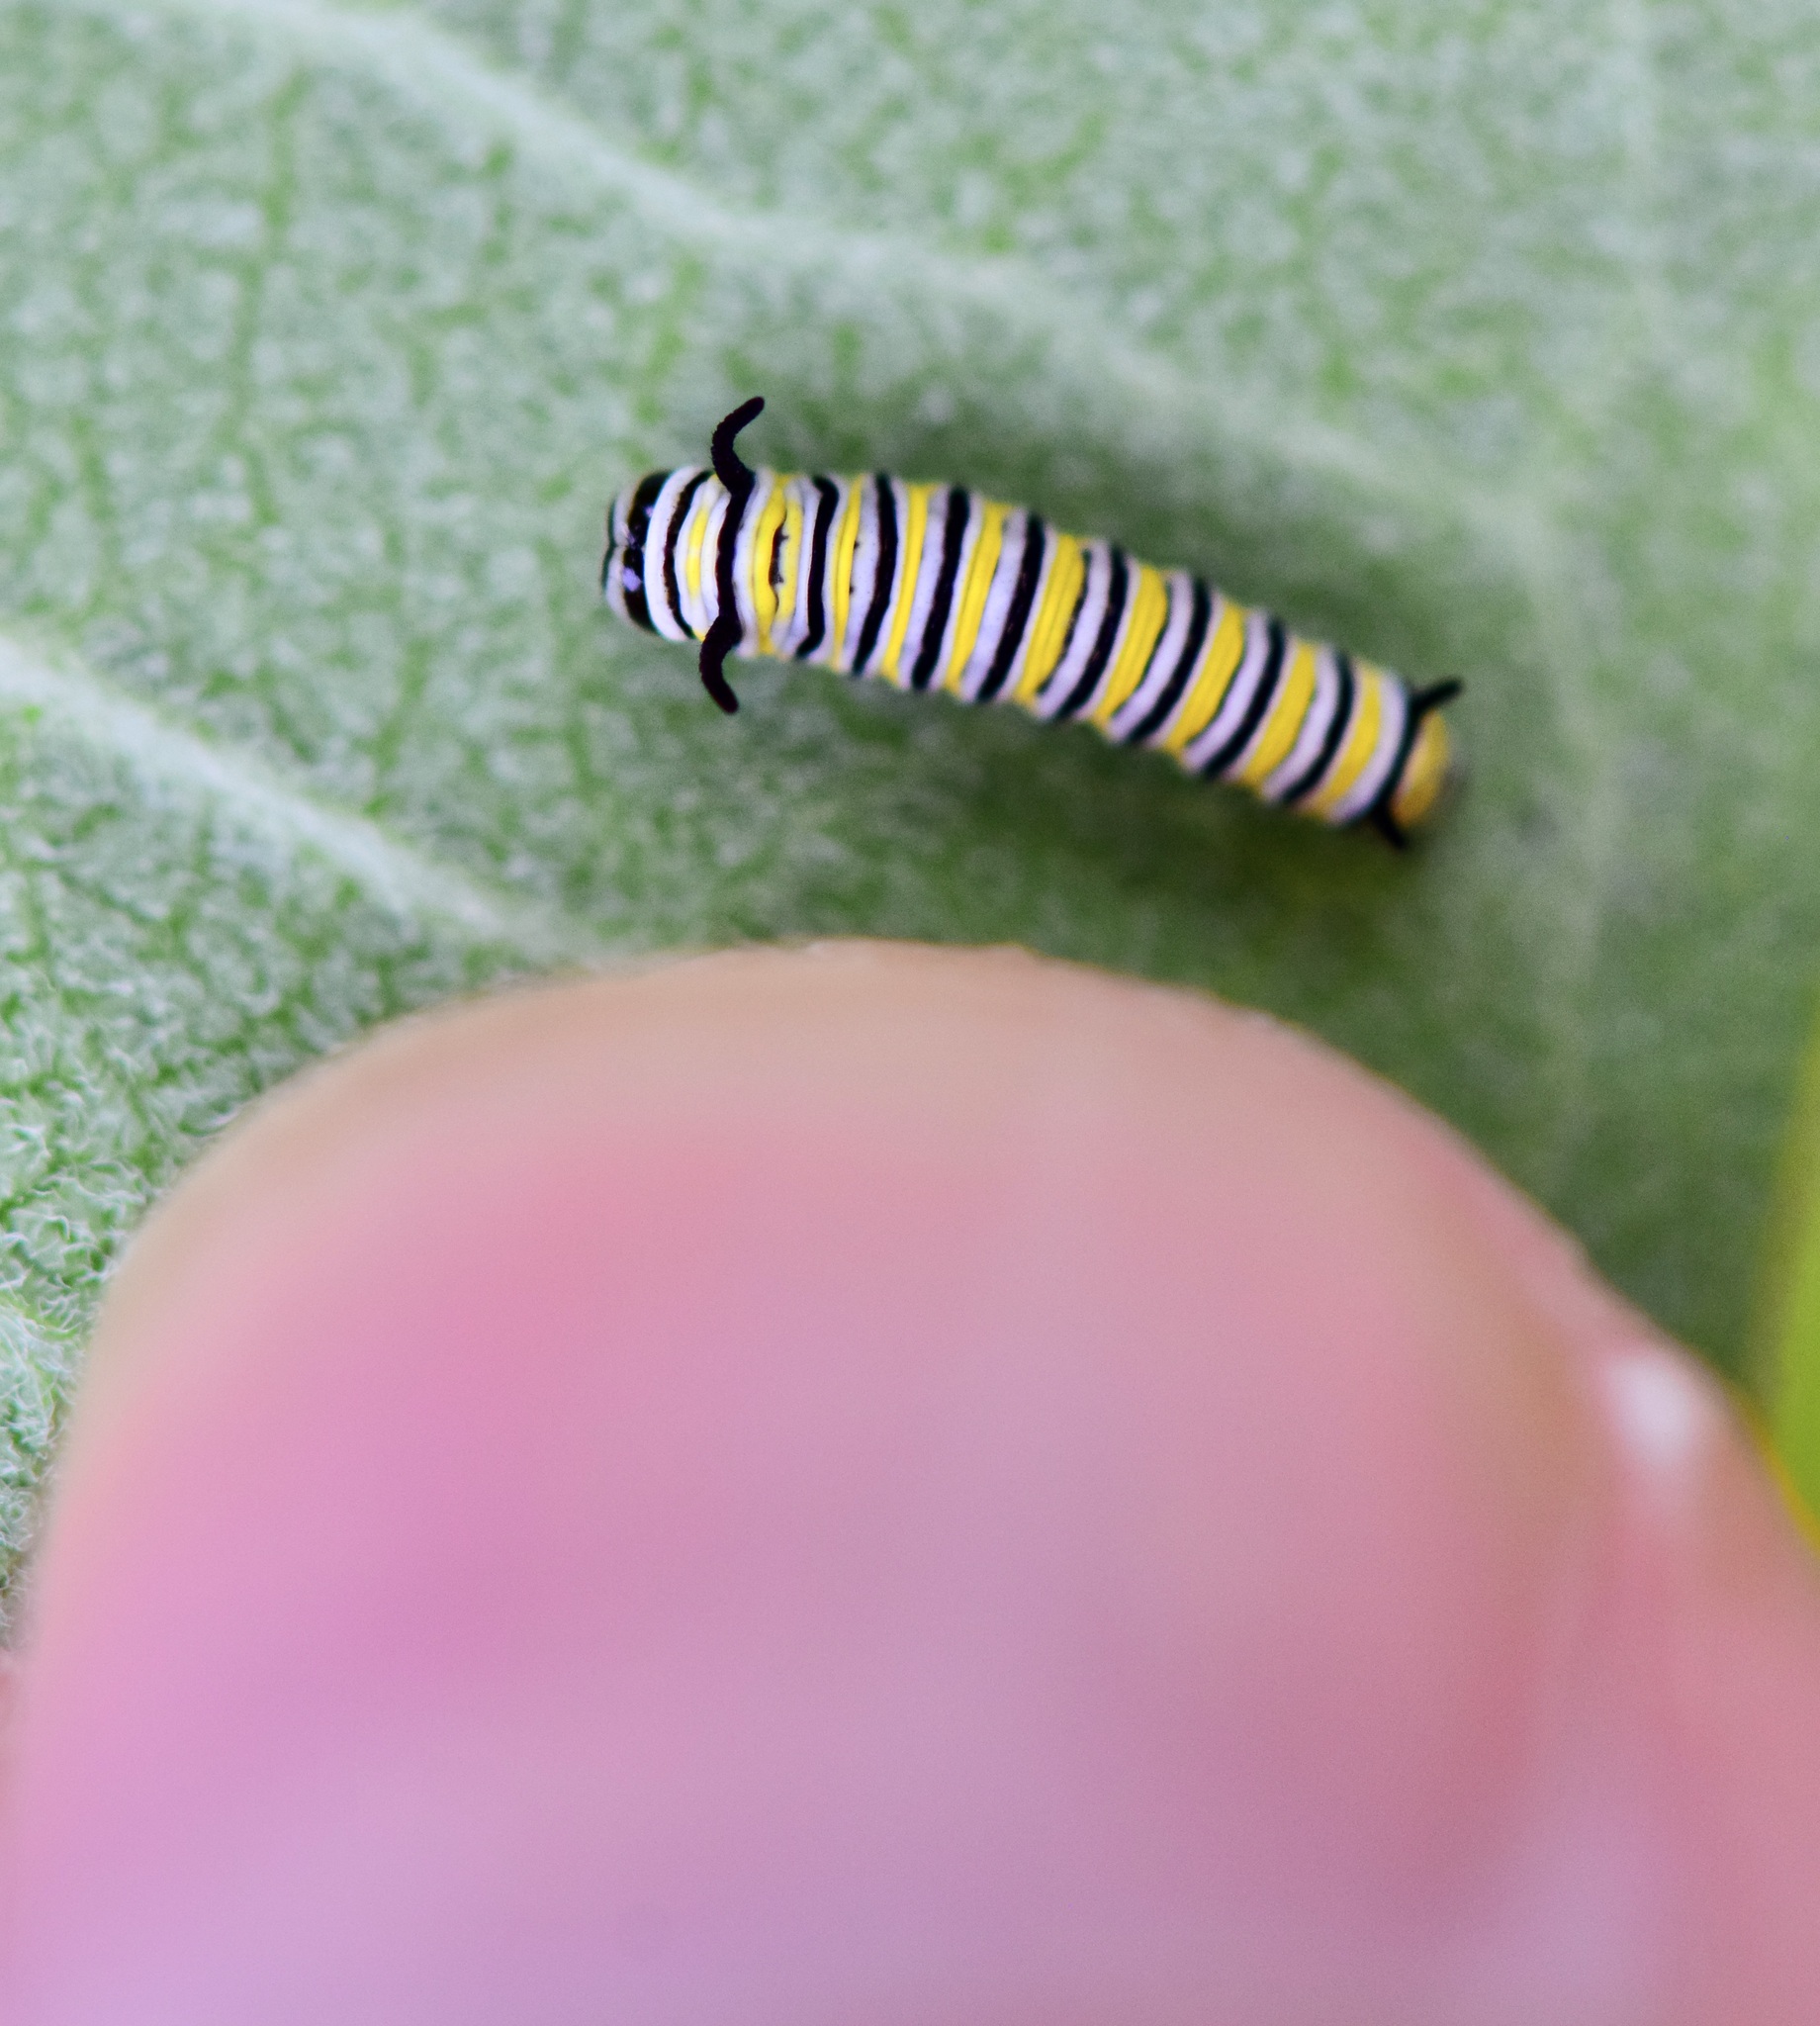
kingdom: Animalia
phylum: Arthropoda
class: Insecta
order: Lepidoptera
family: Nymphalidae
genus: Danaus
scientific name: Danaus plexippus
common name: Monarch
